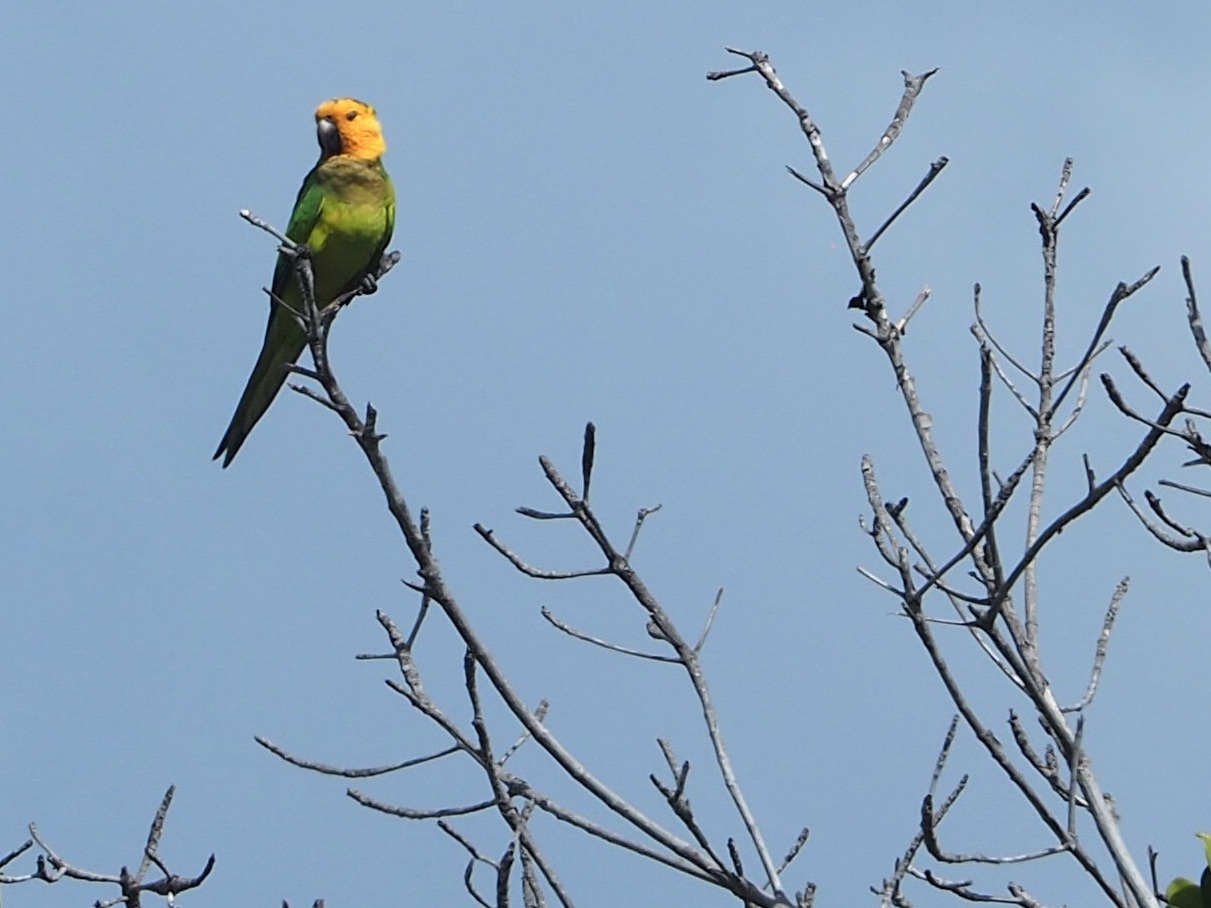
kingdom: Animalia
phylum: Chordata
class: Aves
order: Psittaciformes
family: Psittacidae
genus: Aratinga
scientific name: Aratinga pertinax
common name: Brown-throated parakeet
